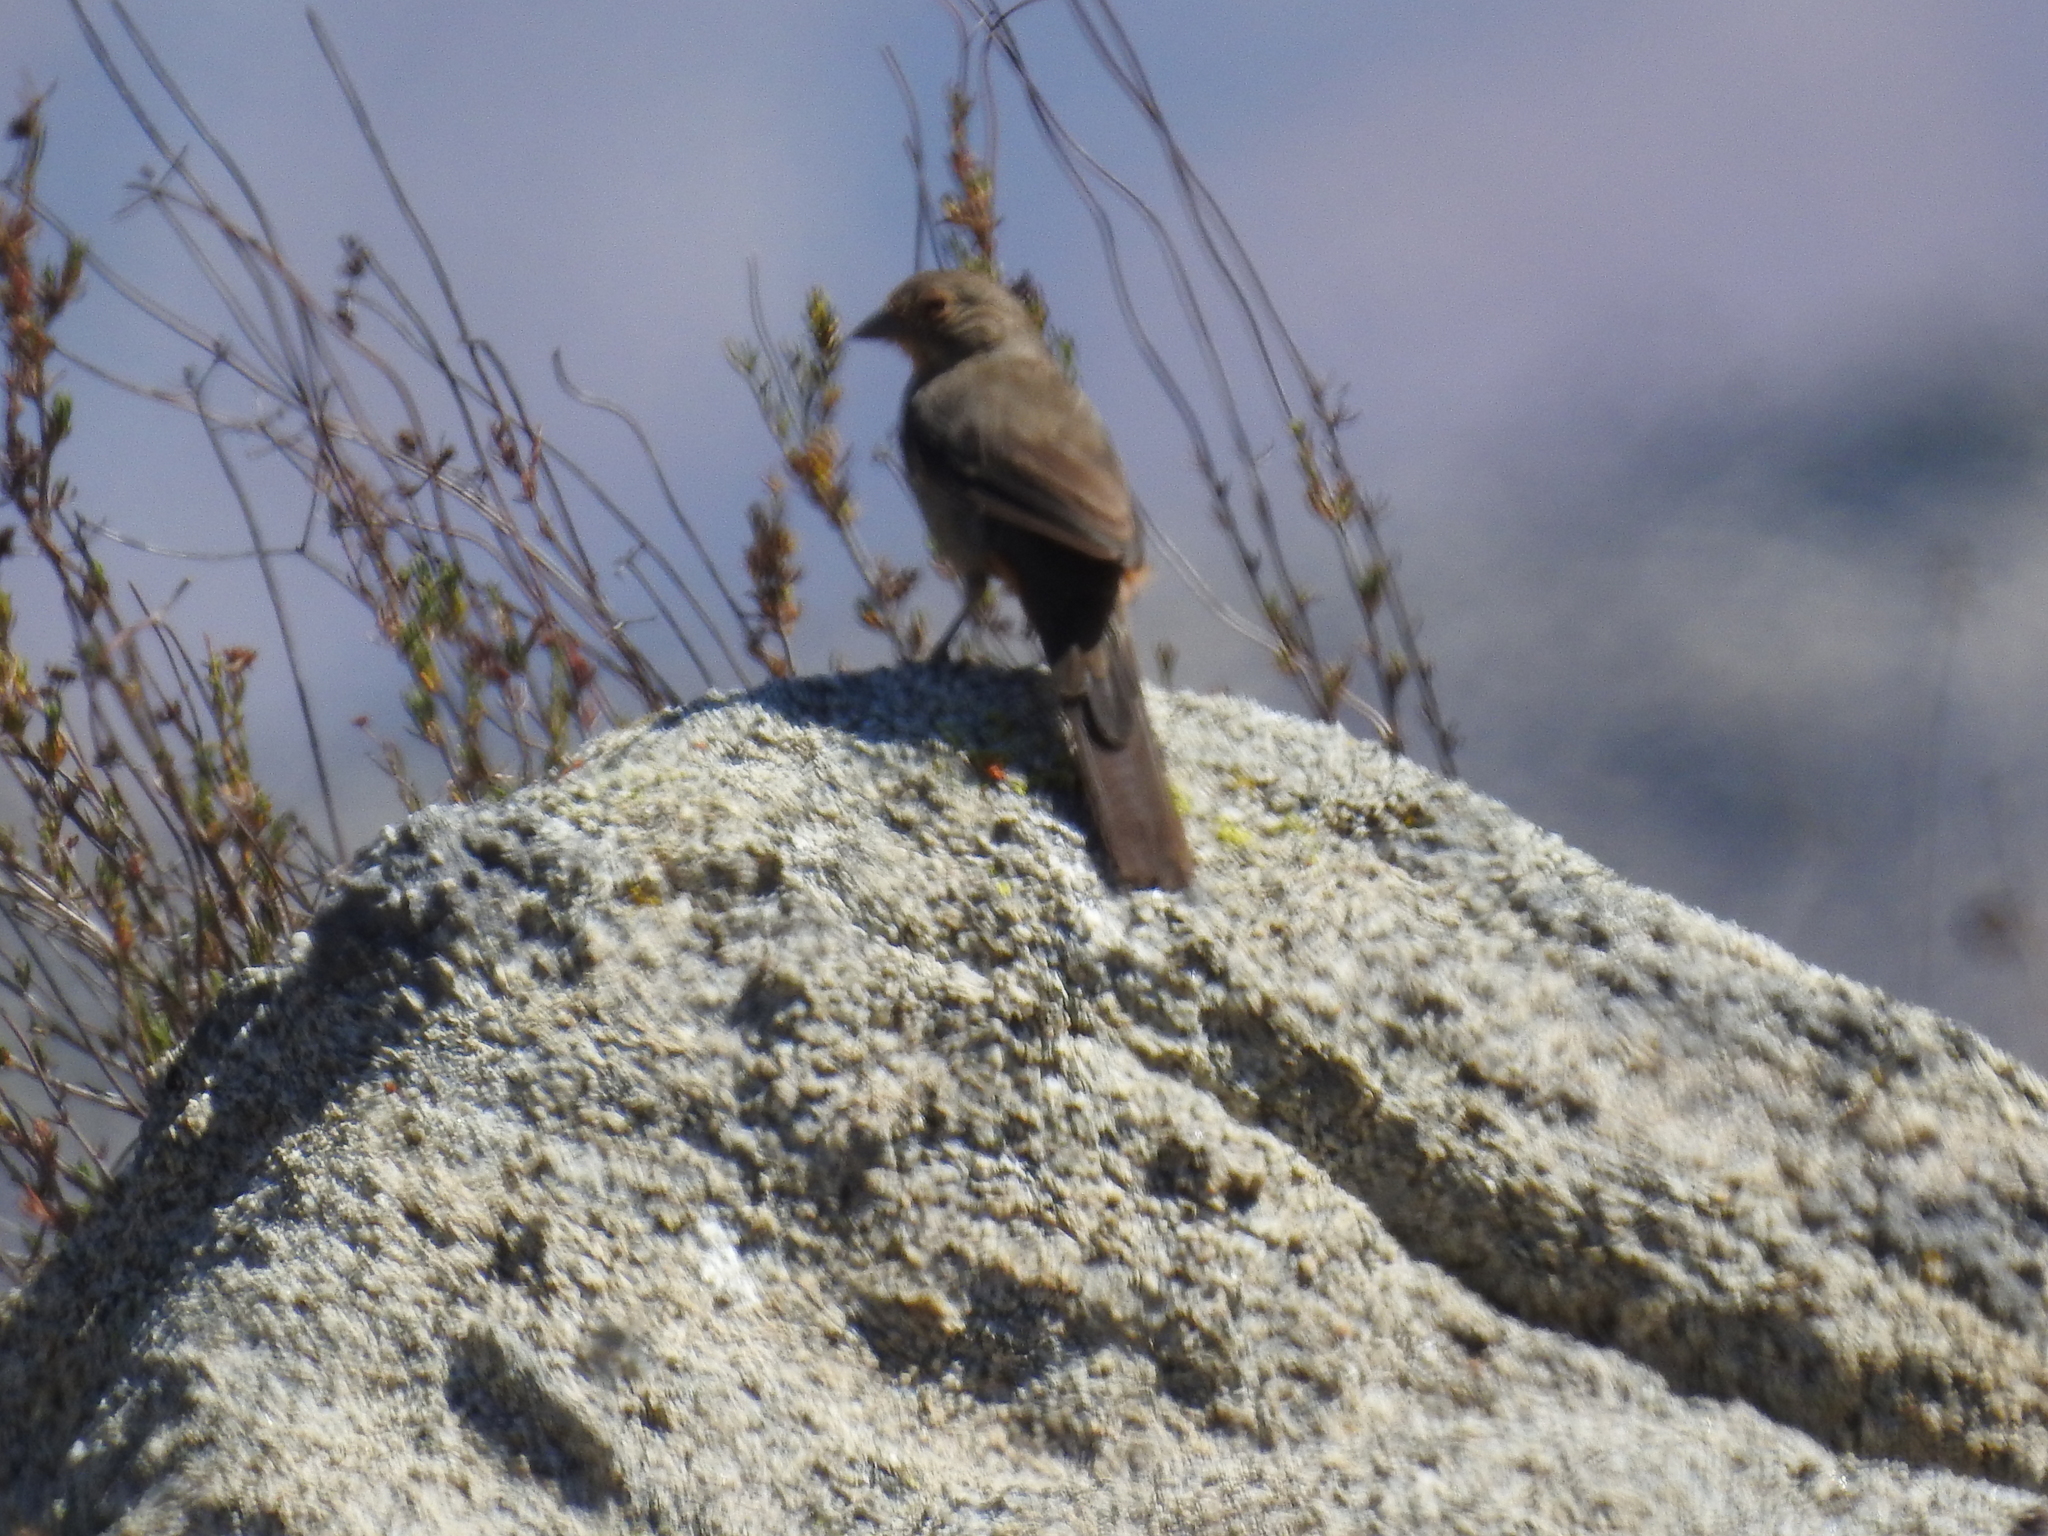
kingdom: Animalia
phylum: Chordata
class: Aves
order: Passeriformes
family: Passerellidae
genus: Melozone
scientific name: Melozone crissalis
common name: California towhee
